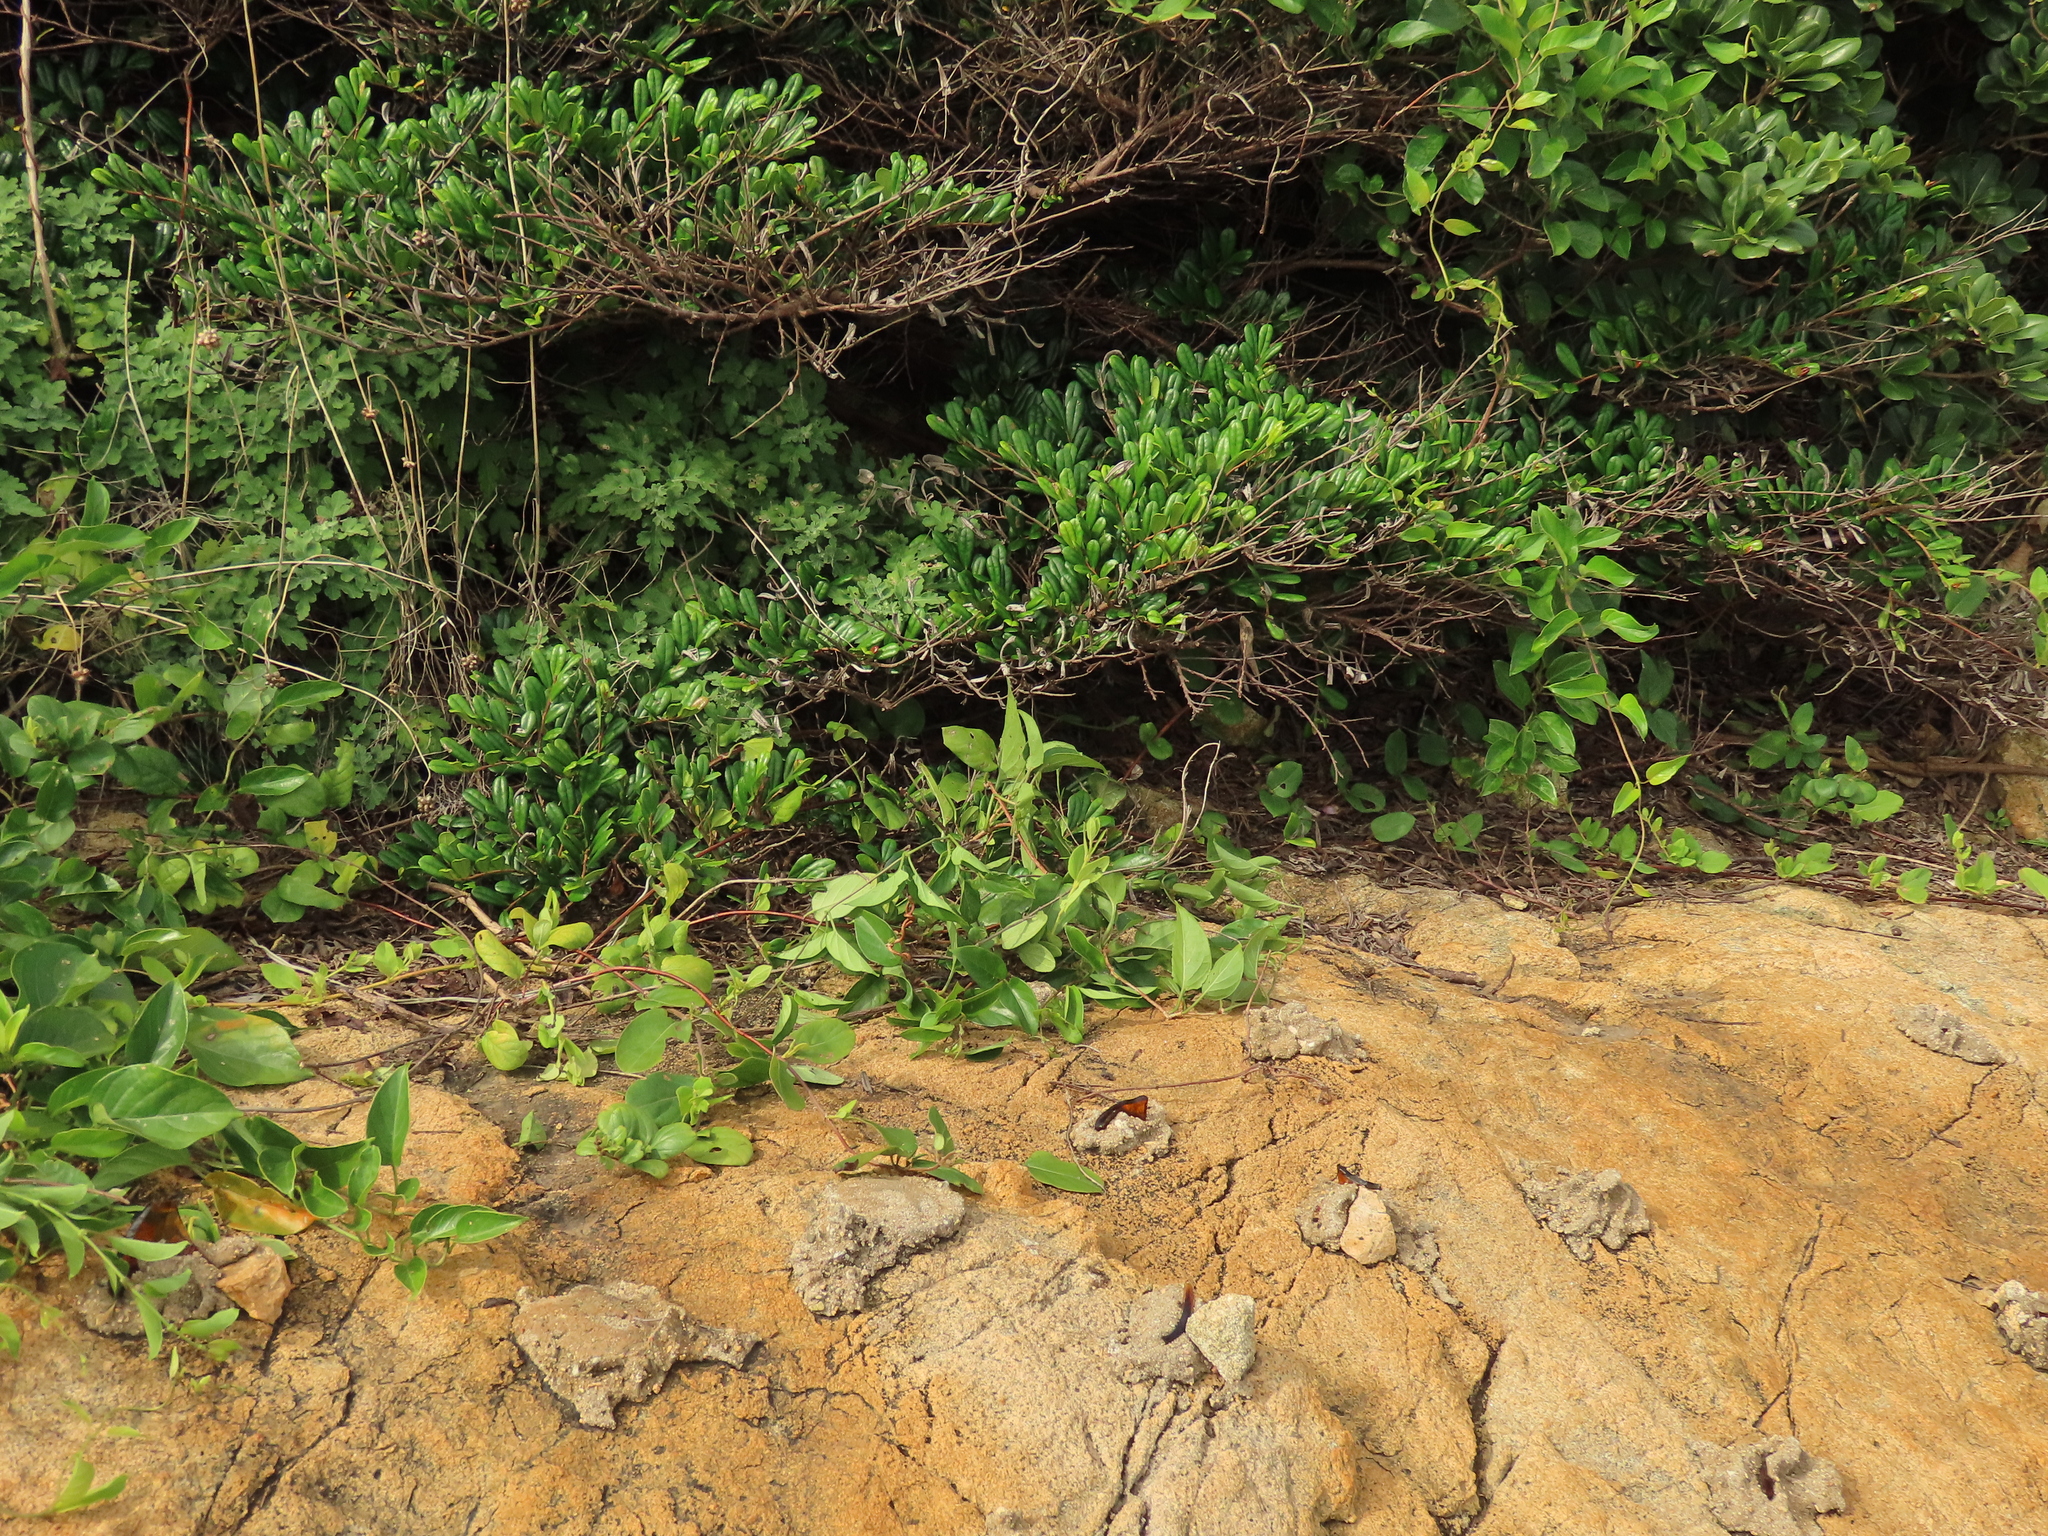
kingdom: Plantae
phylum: Tracheophyta
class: Magnoliopsida
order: Ericales
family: Pentaphylacaceae
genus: Eurya
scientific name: Eurya emarginata
